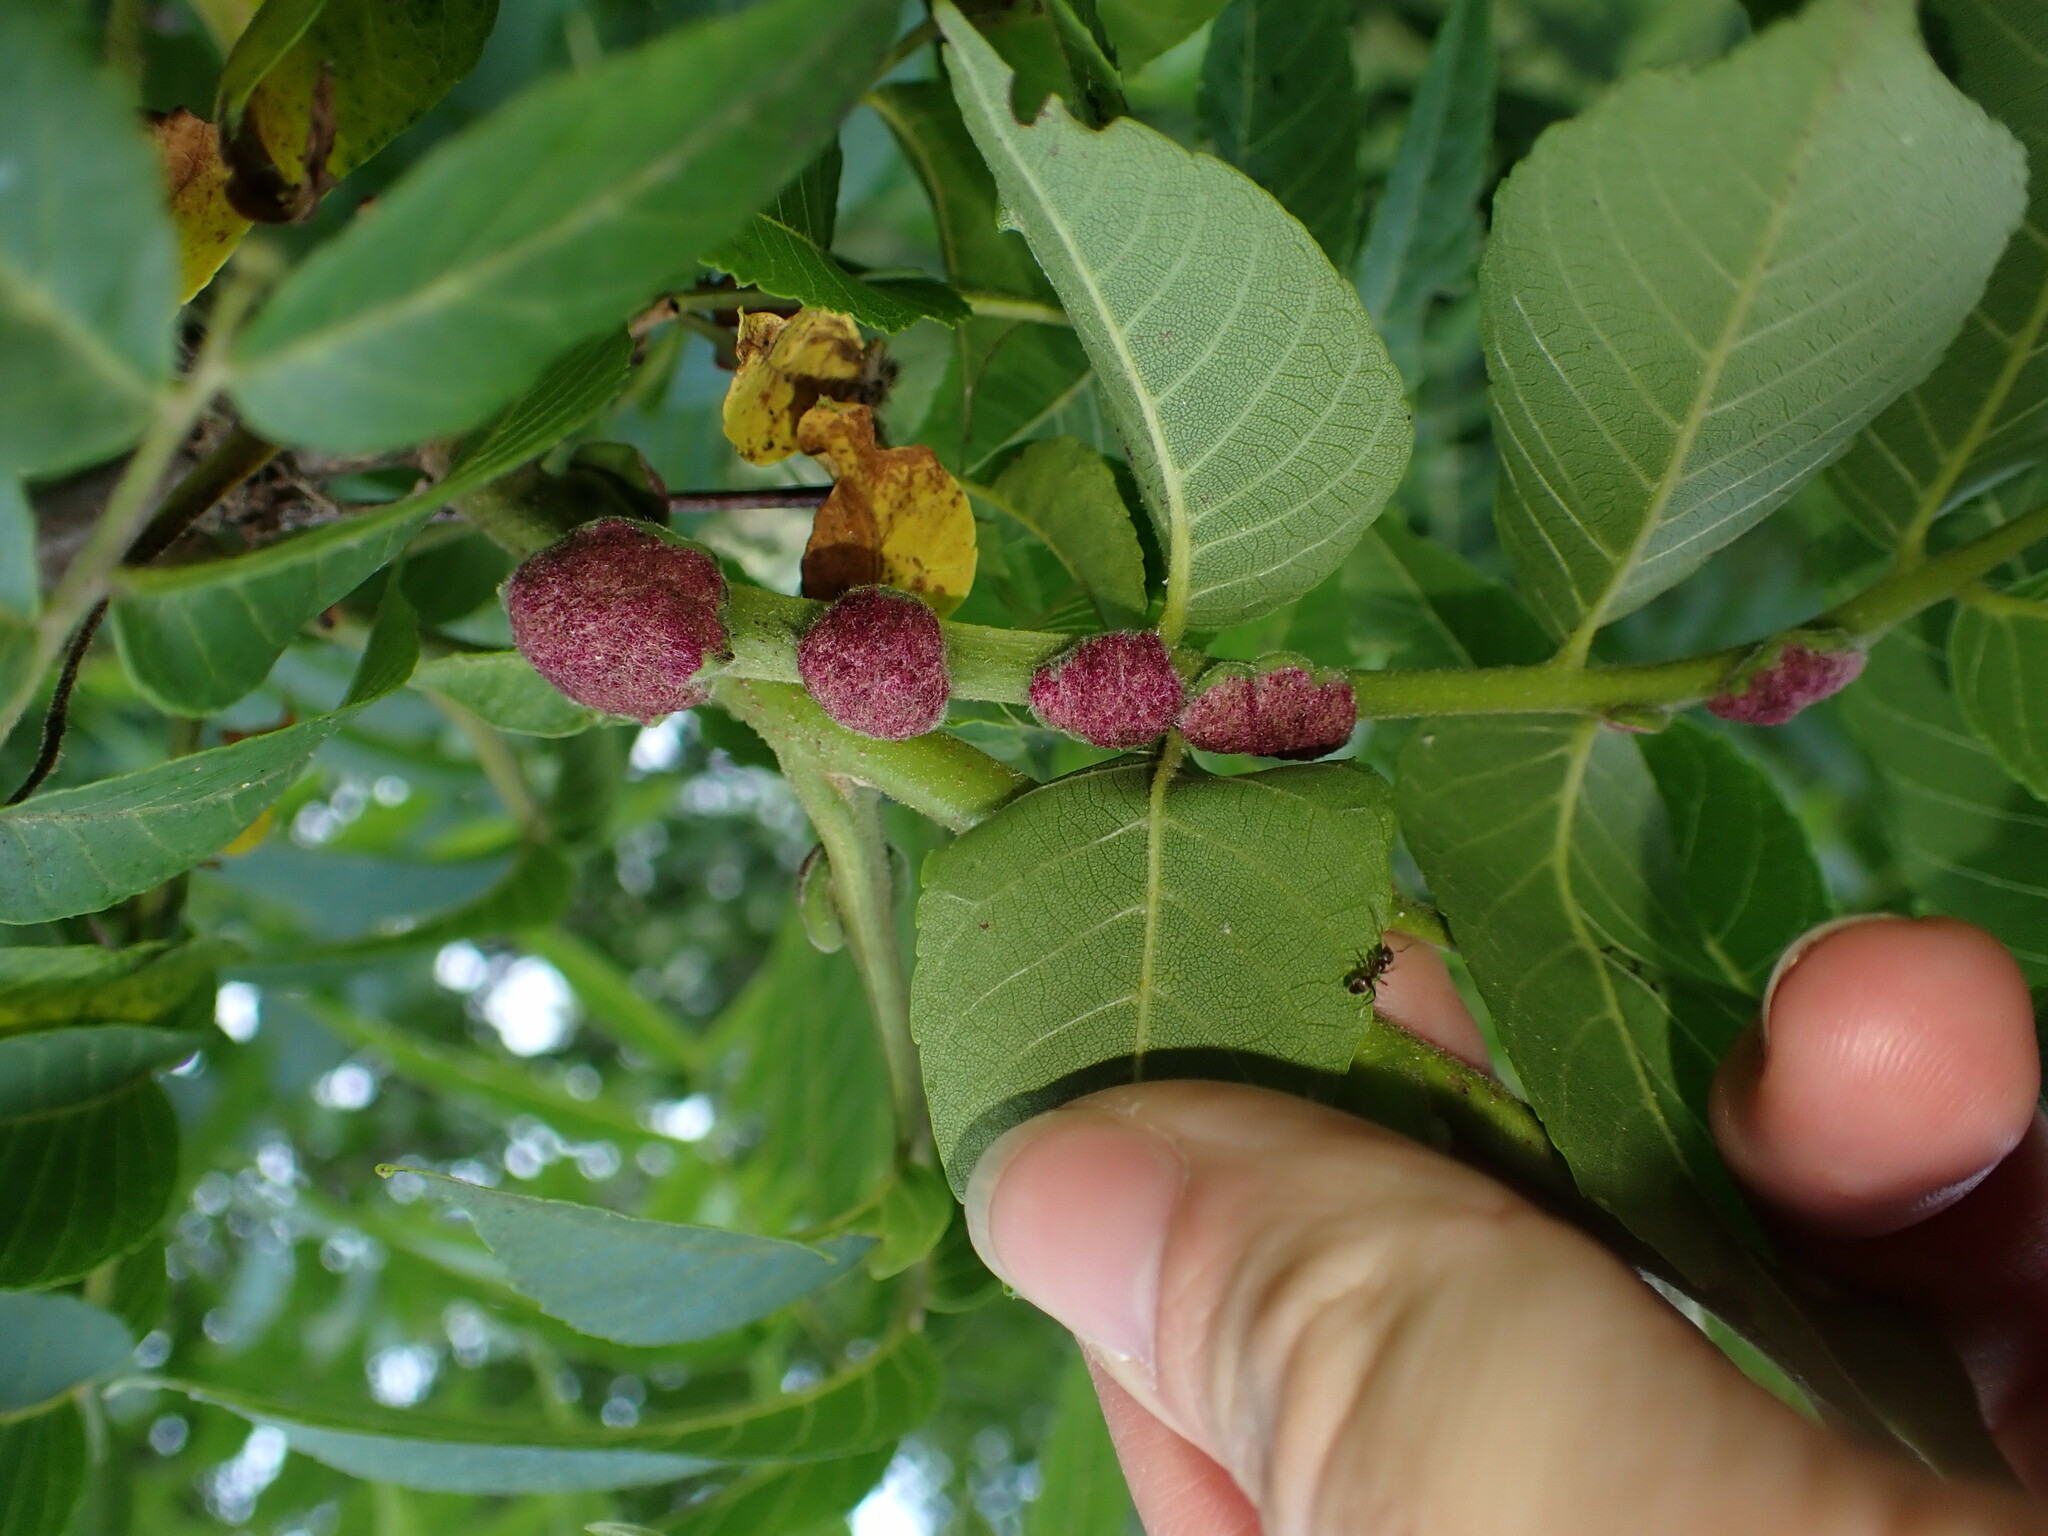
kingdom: Animalia
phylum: Arthropoda
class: Arachnida
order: Trombidiformes
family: Eriophyidae
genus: Aceria
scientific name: Aceria
